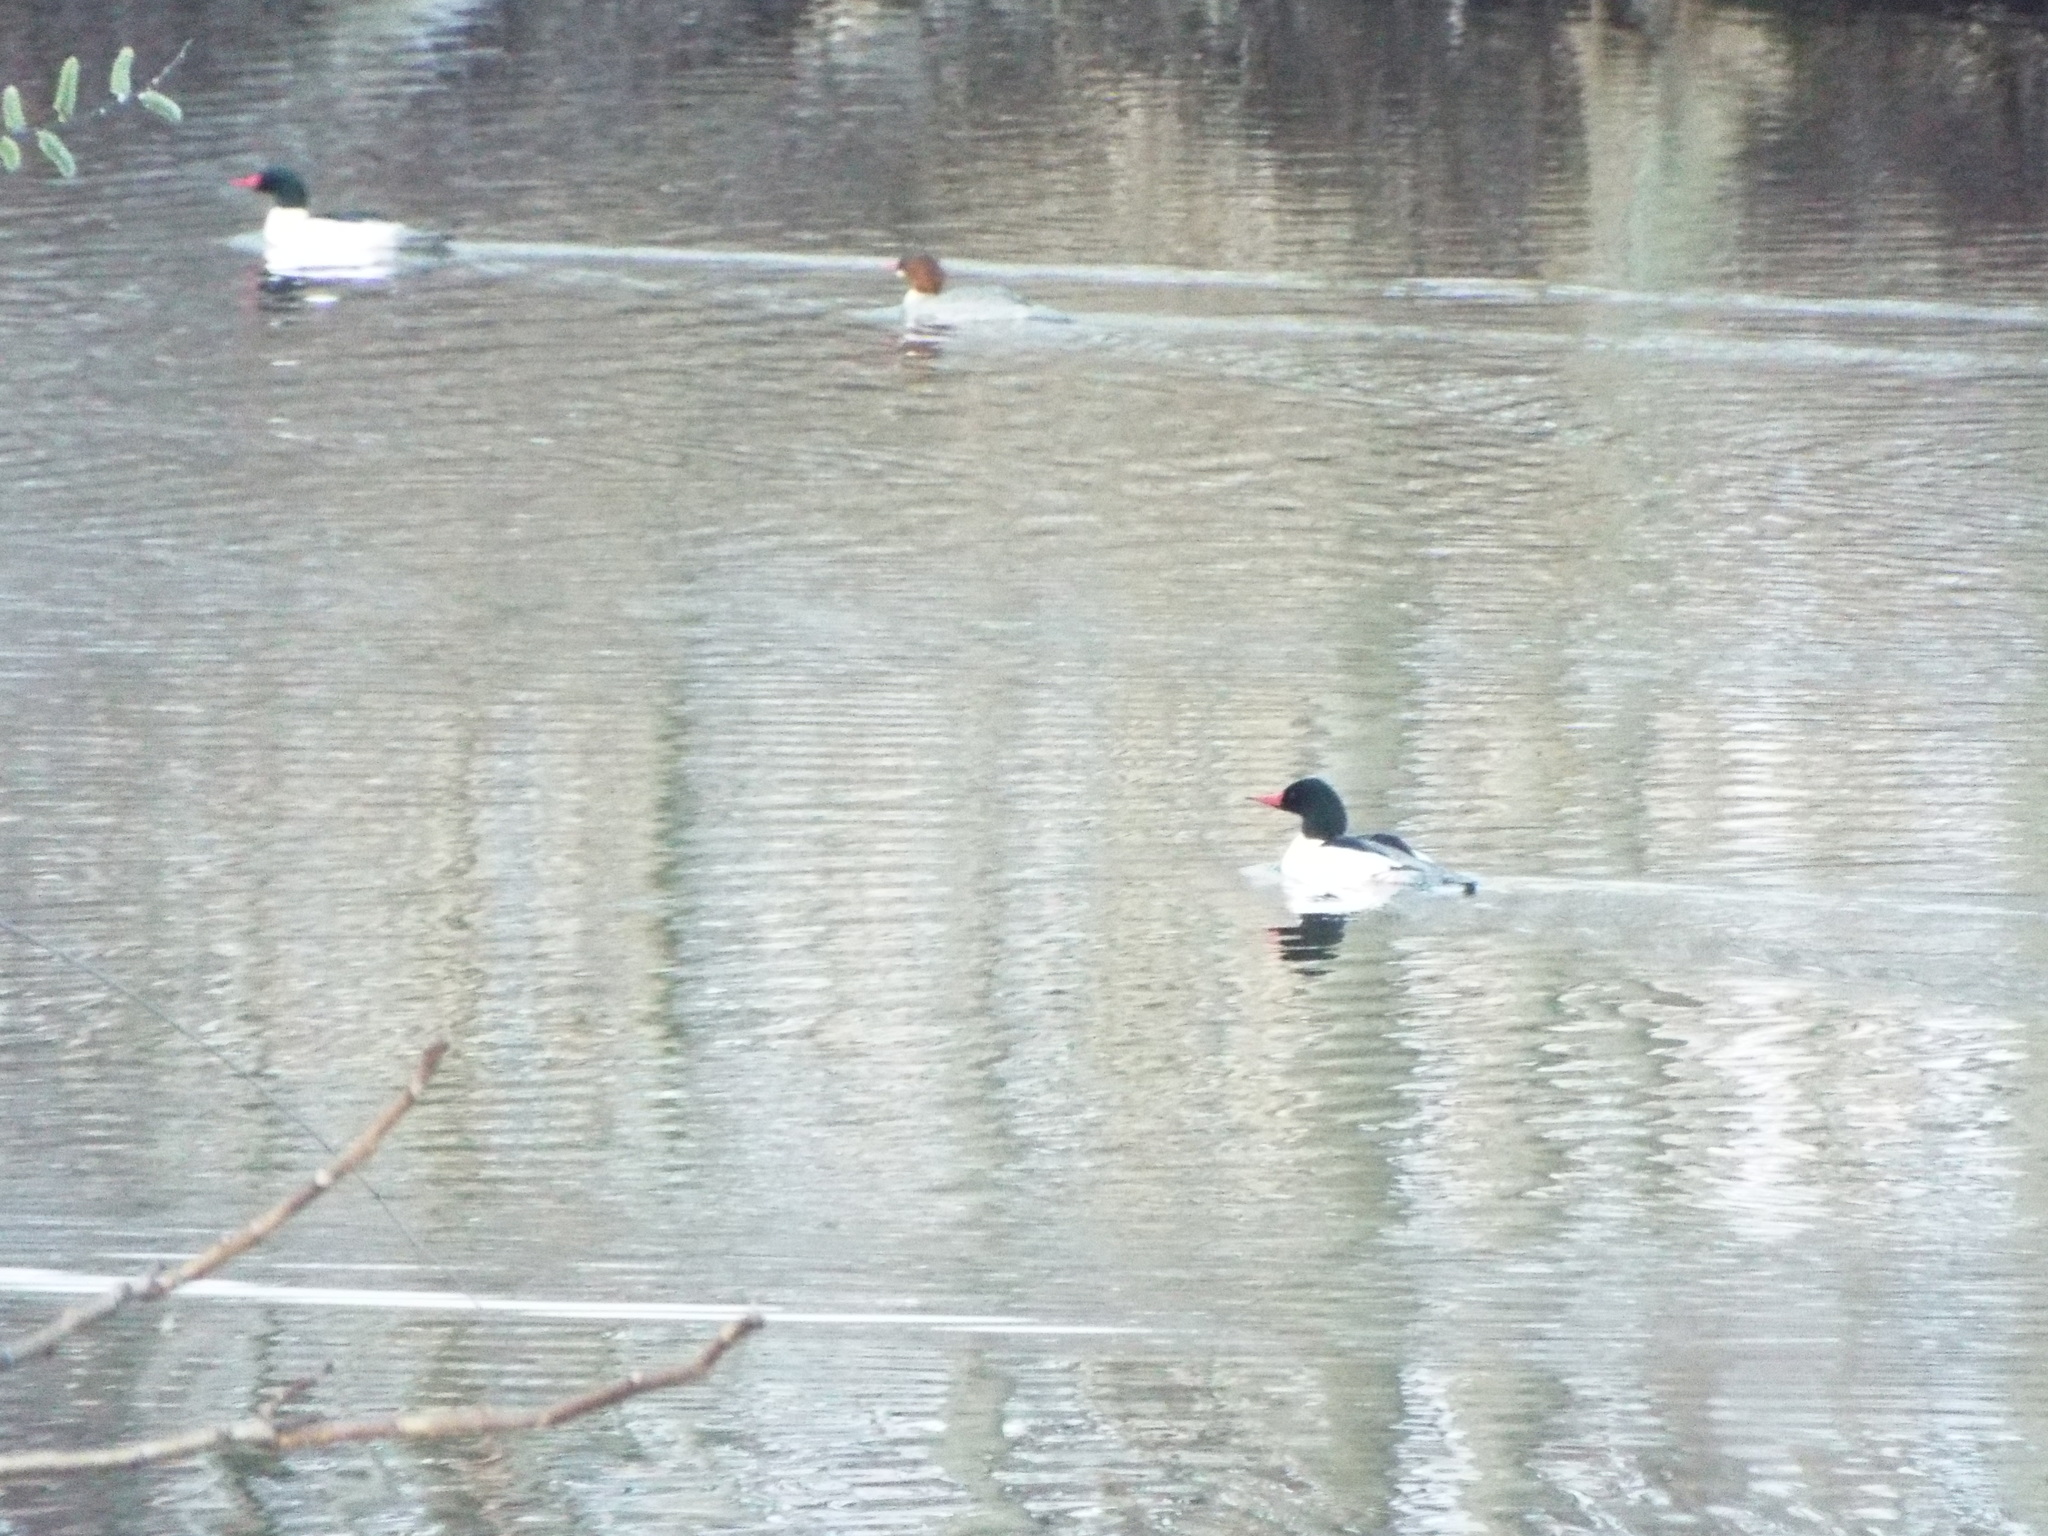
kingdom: Animalia
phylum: Chordata
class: Aves
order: Anseriformes
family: Anatidae
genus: Mergus
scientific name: Mergus merganser
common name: Common merganser
